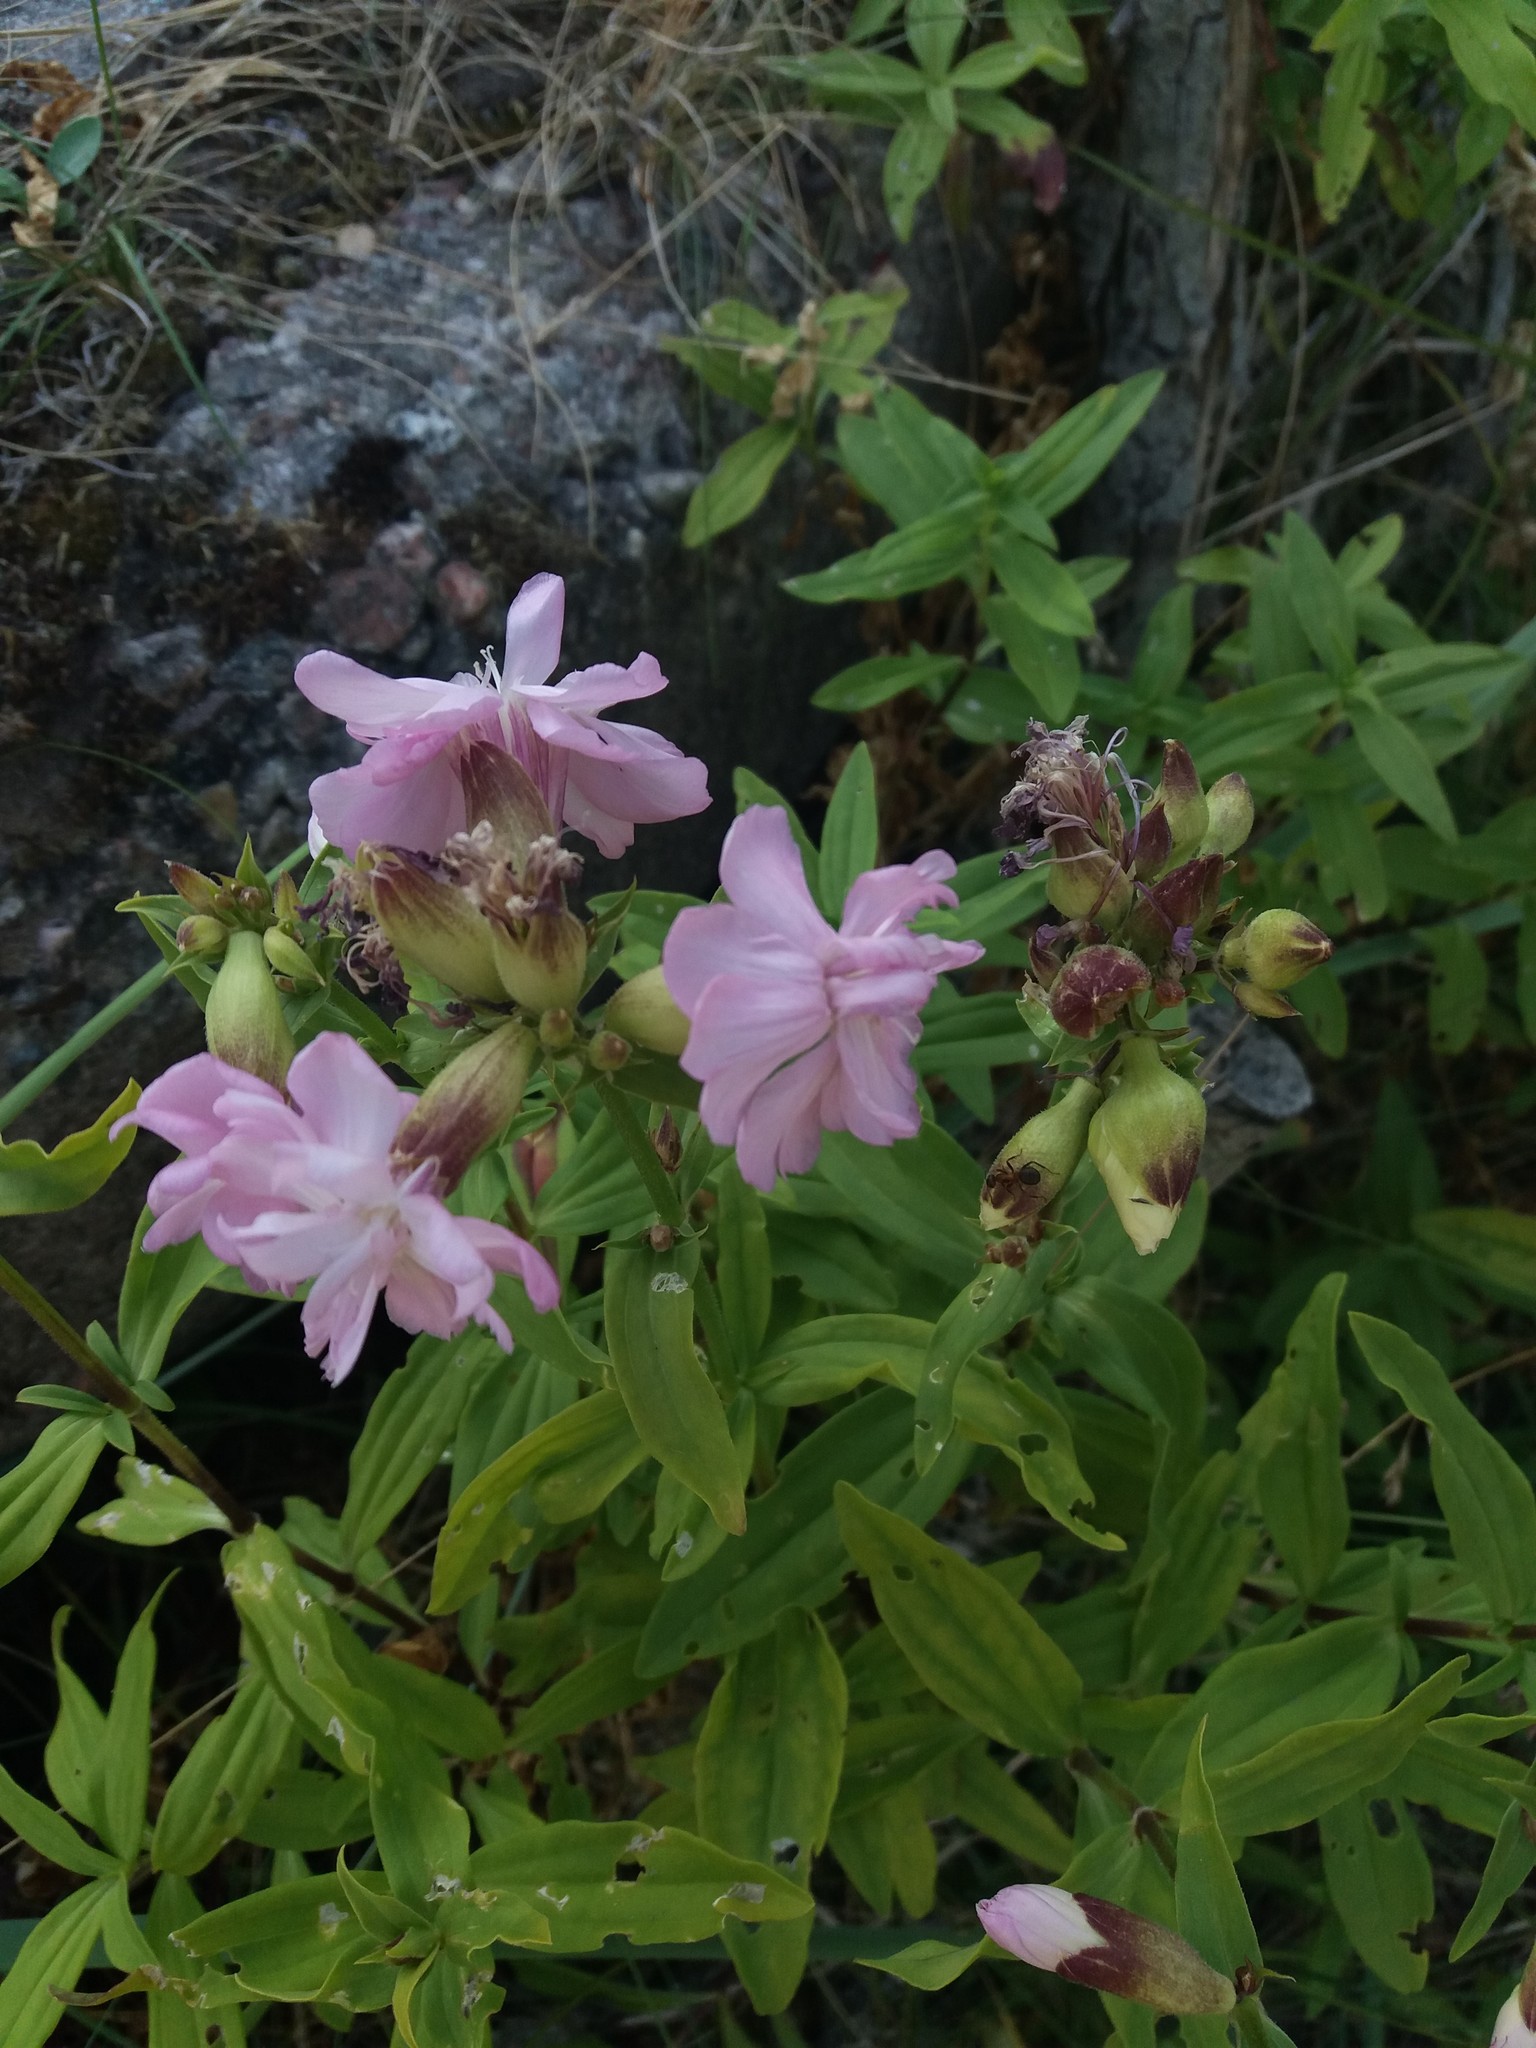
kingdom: Plantae
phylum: Tracheophyta
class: Magnoliopsida
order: Caryophyllales
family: Caryophyllaceae
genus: Saponaria
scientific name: Saponaria officinalis
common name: Soapwort
